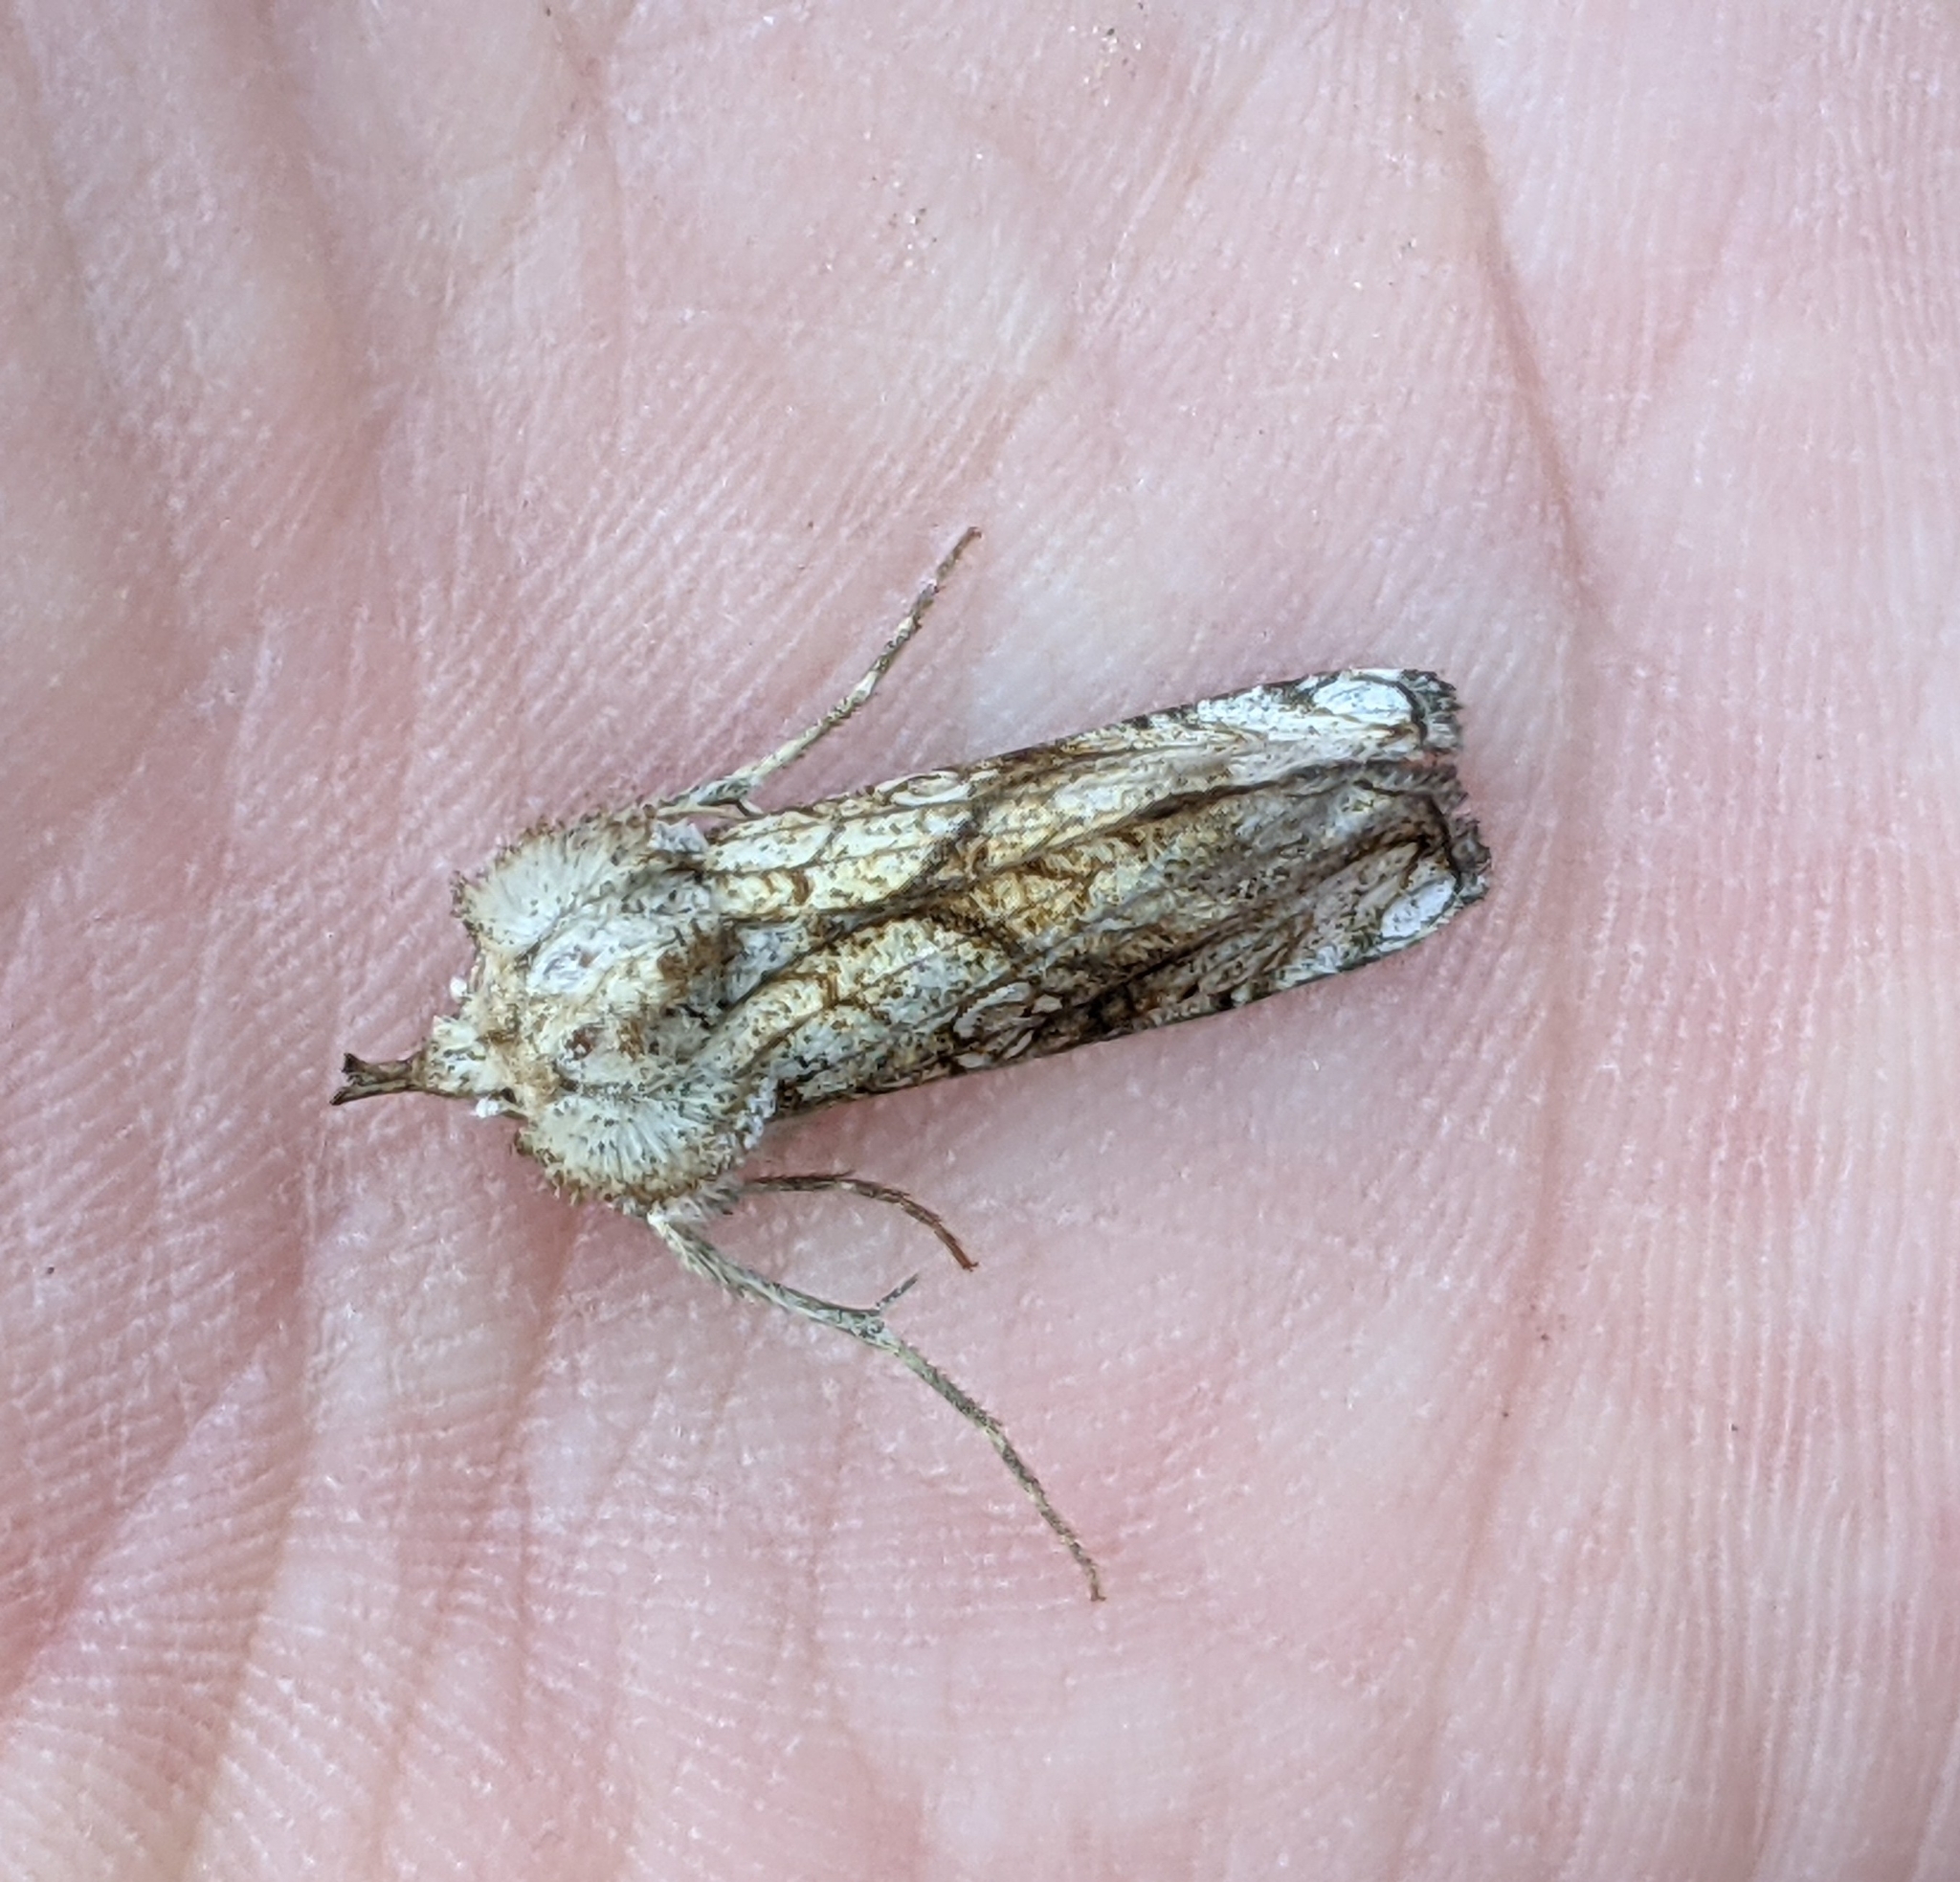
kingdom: Animalia
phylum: Arthropoda
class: Insecta
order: Lepidoptera
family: Noctuidae
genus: Polychrysia
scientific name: Polychrysia esmeralda
